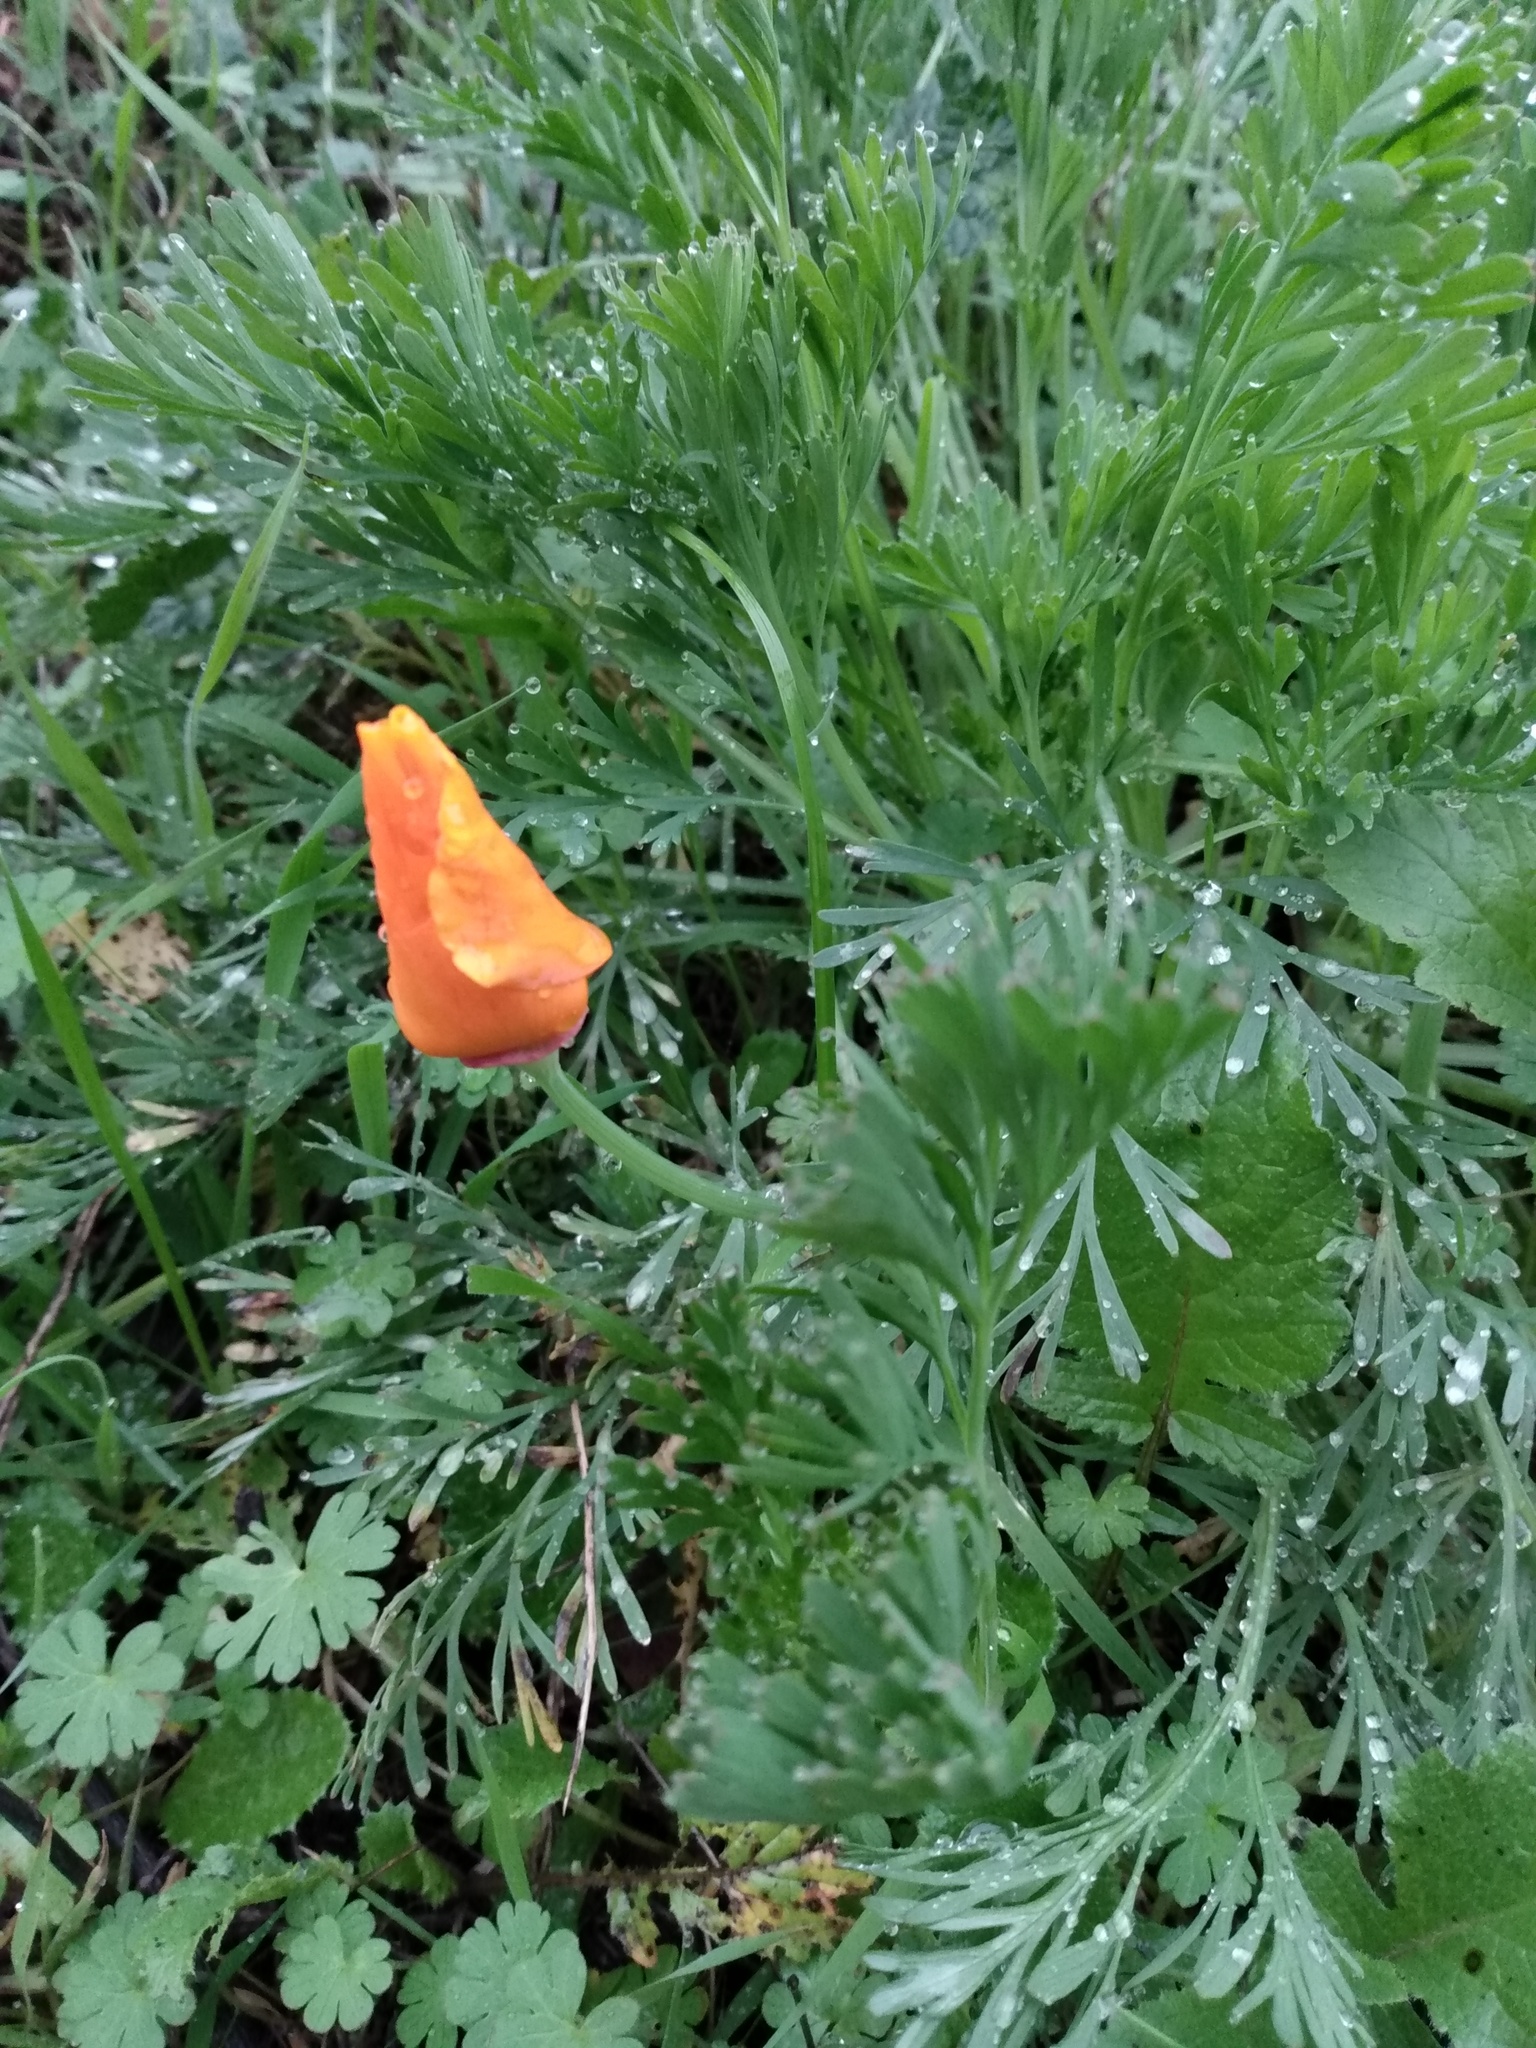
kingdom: Plantae
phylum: Tracheophyta
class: Magnoliopsida
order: Ranunculales
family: Papaveraceae
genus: Eschscholzia
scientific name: Eschscholzia californica
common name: California poppy
